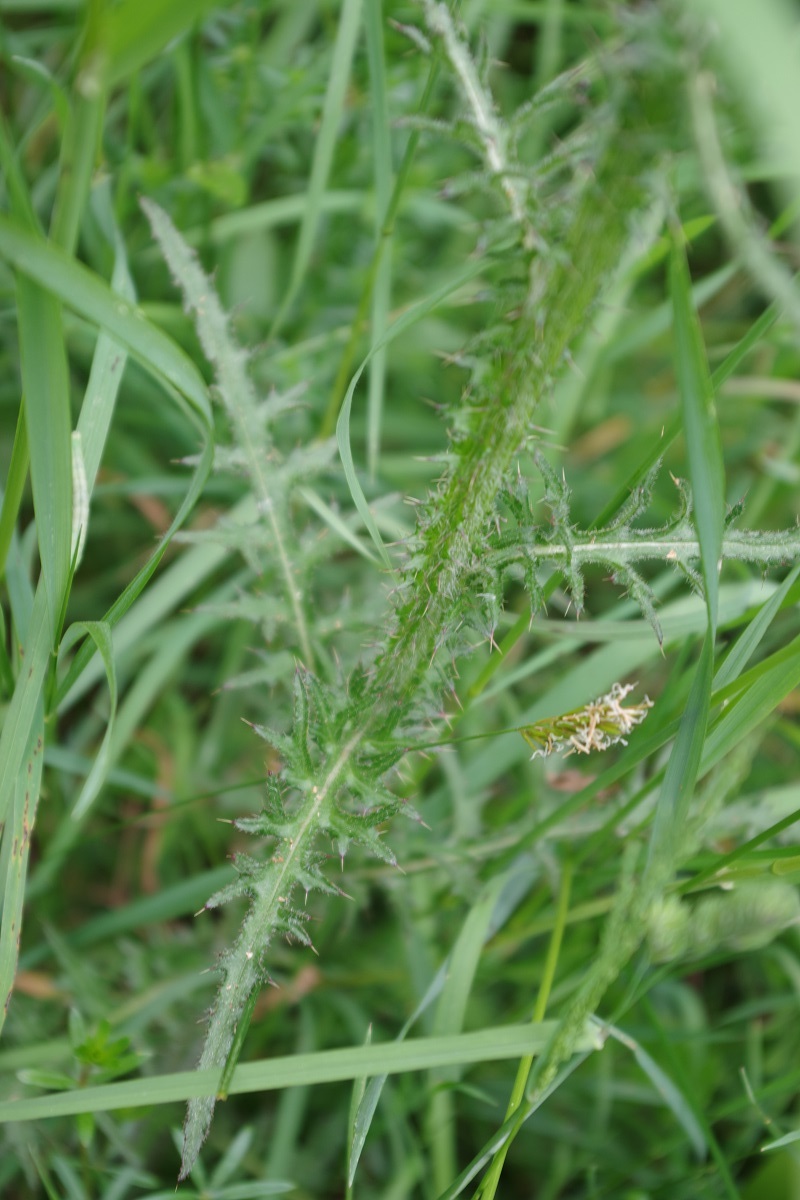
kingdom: Plantae
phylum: Tracheophyta
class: Magnoliopsida
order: Asterales
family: Asteraceae
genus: Cirsium
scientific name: Cirsium palustre
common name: Marsh thistle
